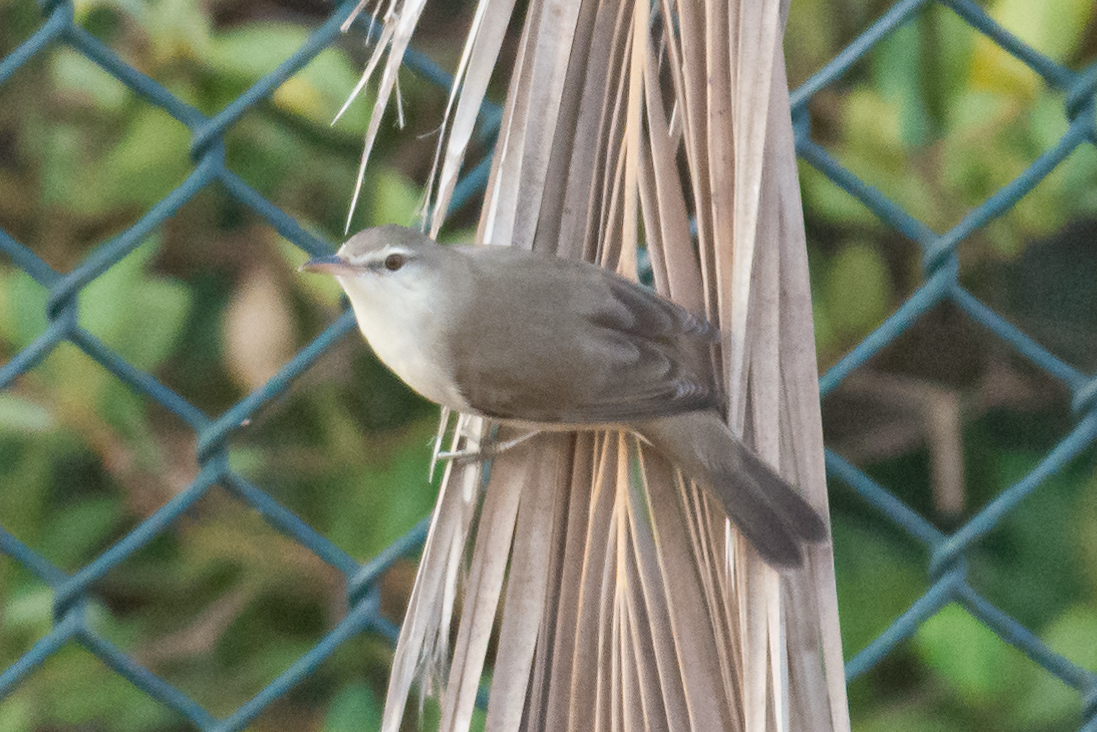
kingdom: Animalia
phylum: Chordata
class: Aves
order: Passeriformes
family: Acrocephalidae
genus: Acrocephalus
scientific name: Acrocephalus stentoreus
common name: Clamorous reed warbler
